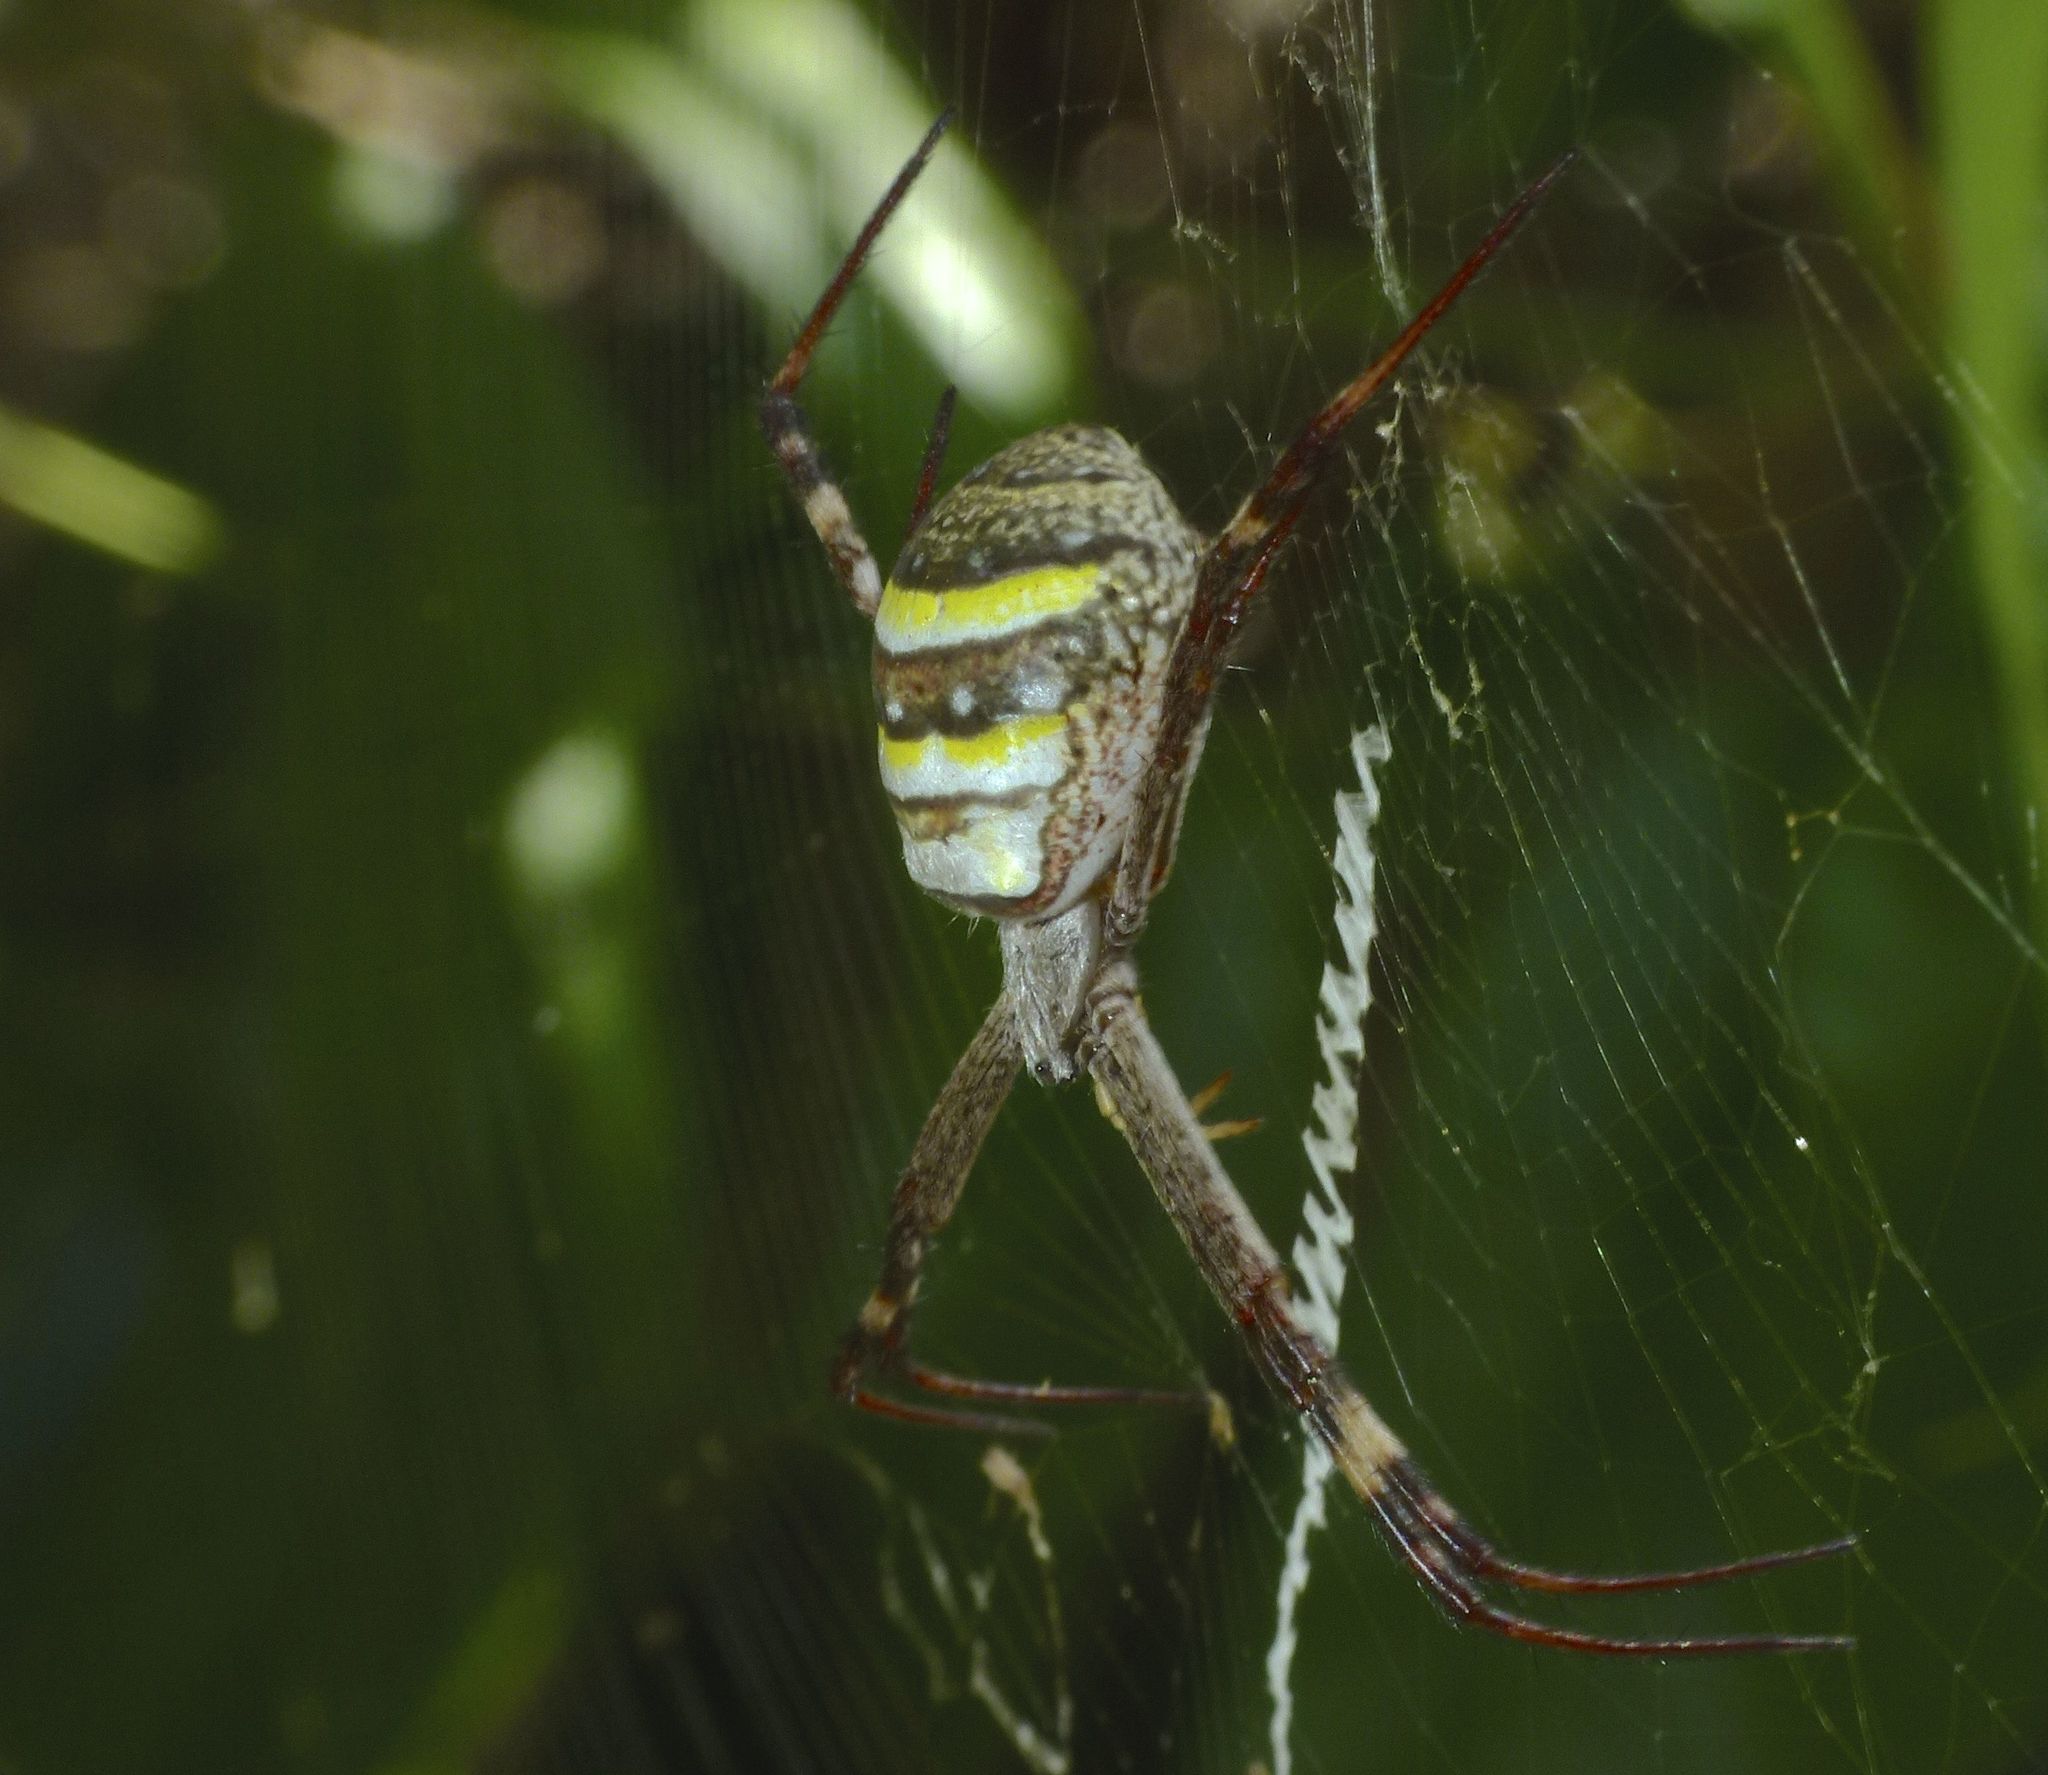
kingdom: Animalia
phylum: Arthropoda
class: Arachnida
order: Araneae
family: Araneidae
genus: Argiope
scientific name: Argiope keyserlingi
